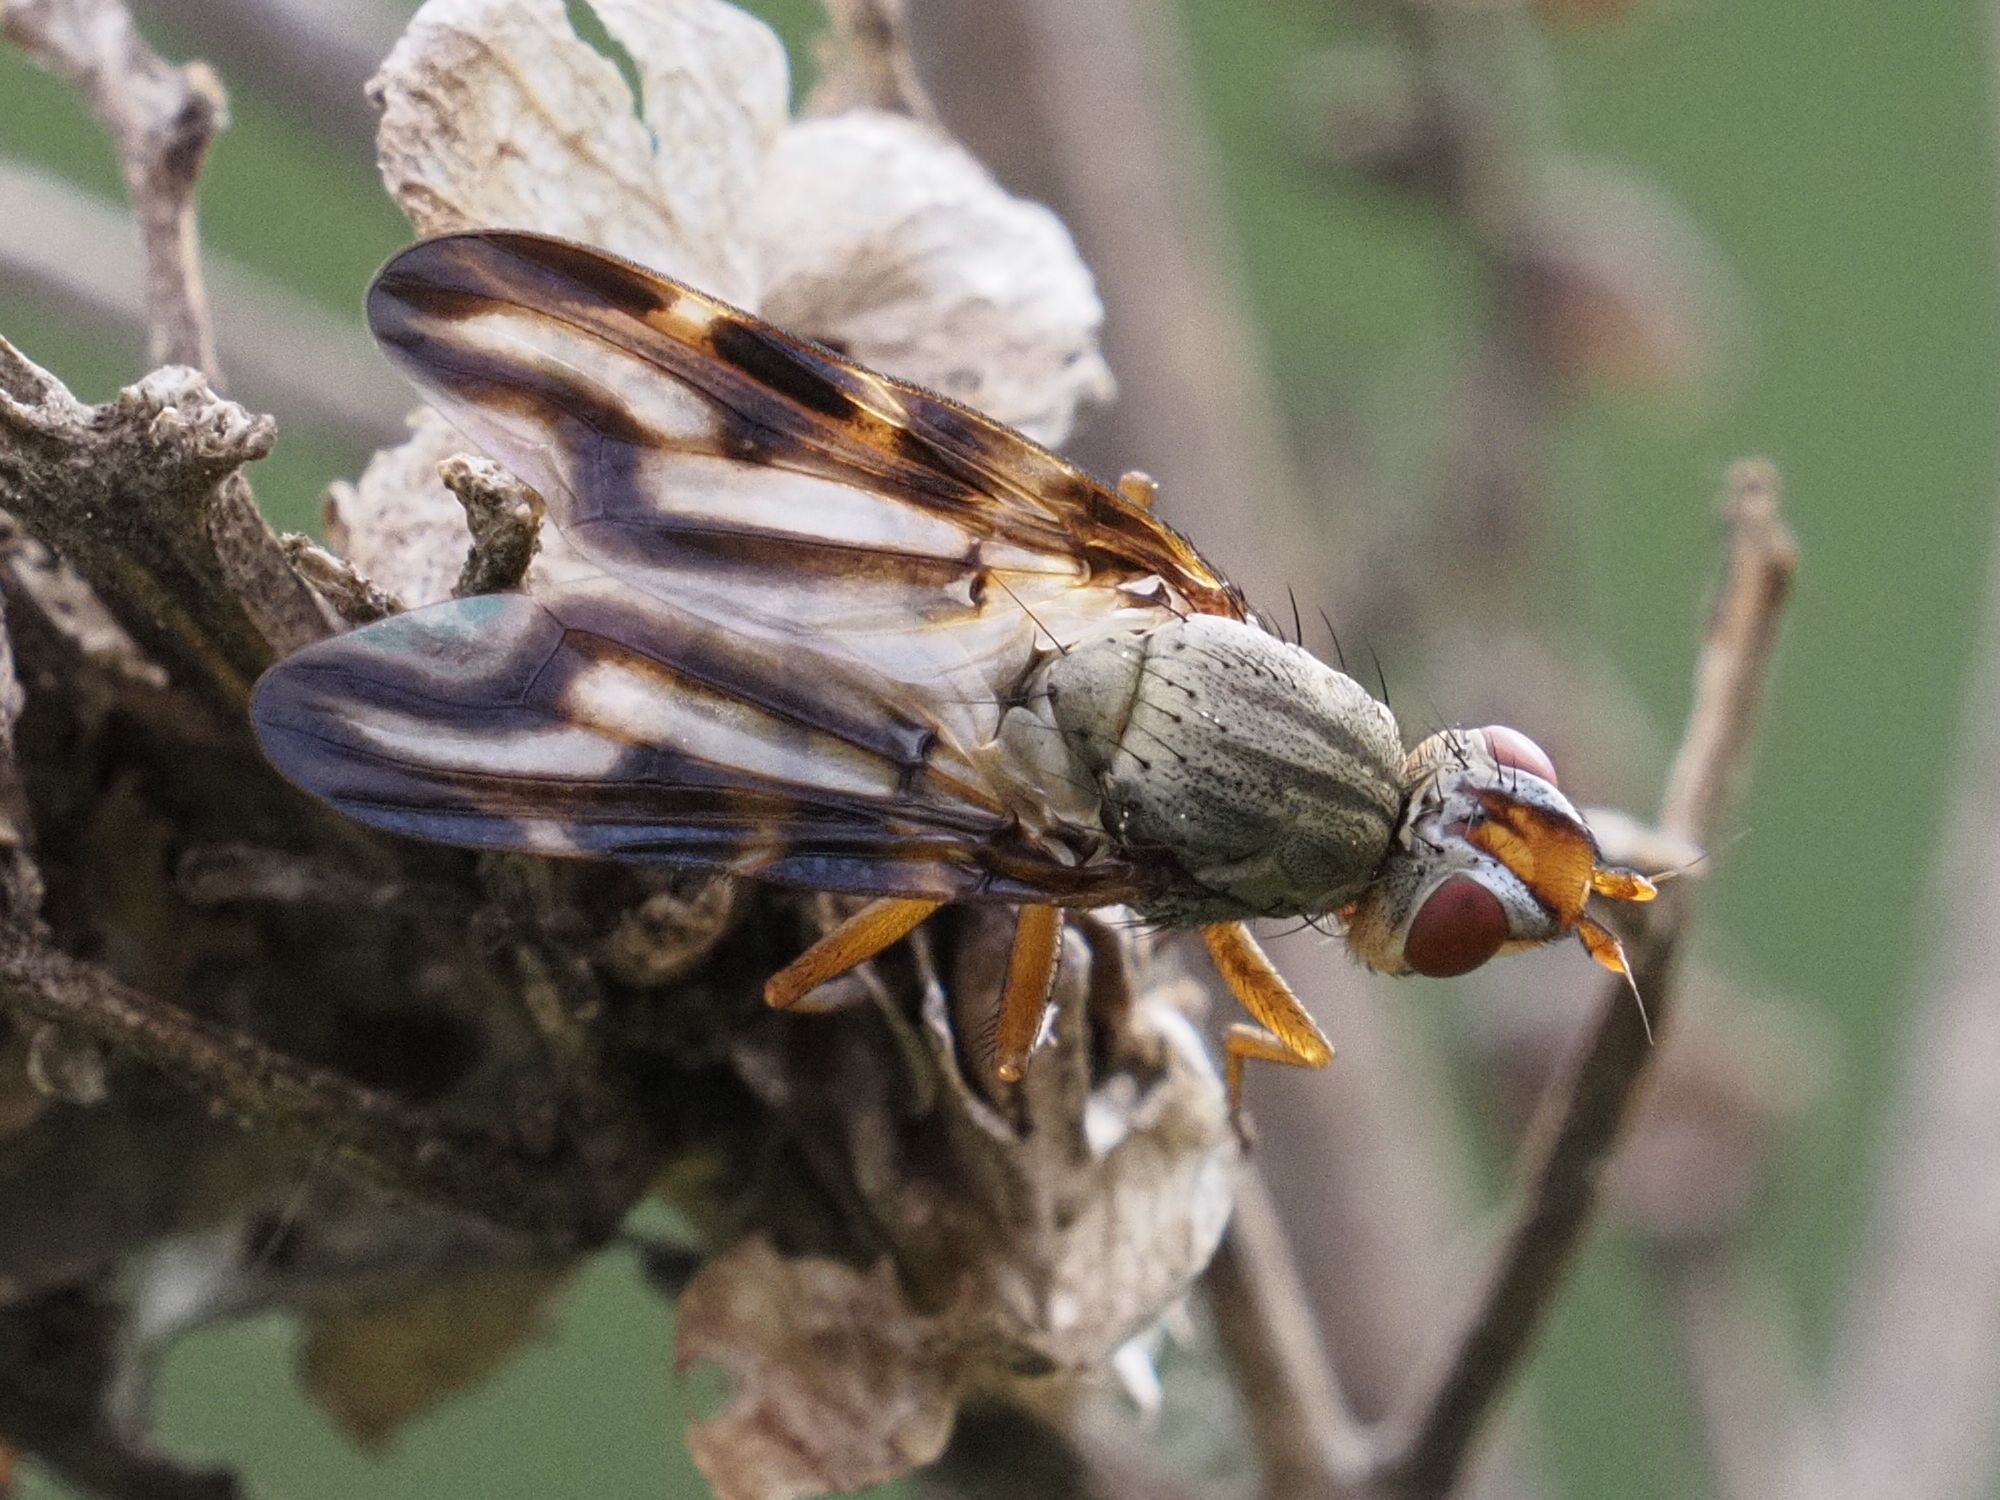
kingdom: Animalia
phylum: Arthropoda
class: Insecta
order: Diptera
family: Ulidiidae
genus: Otites
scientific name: Otites lamed
